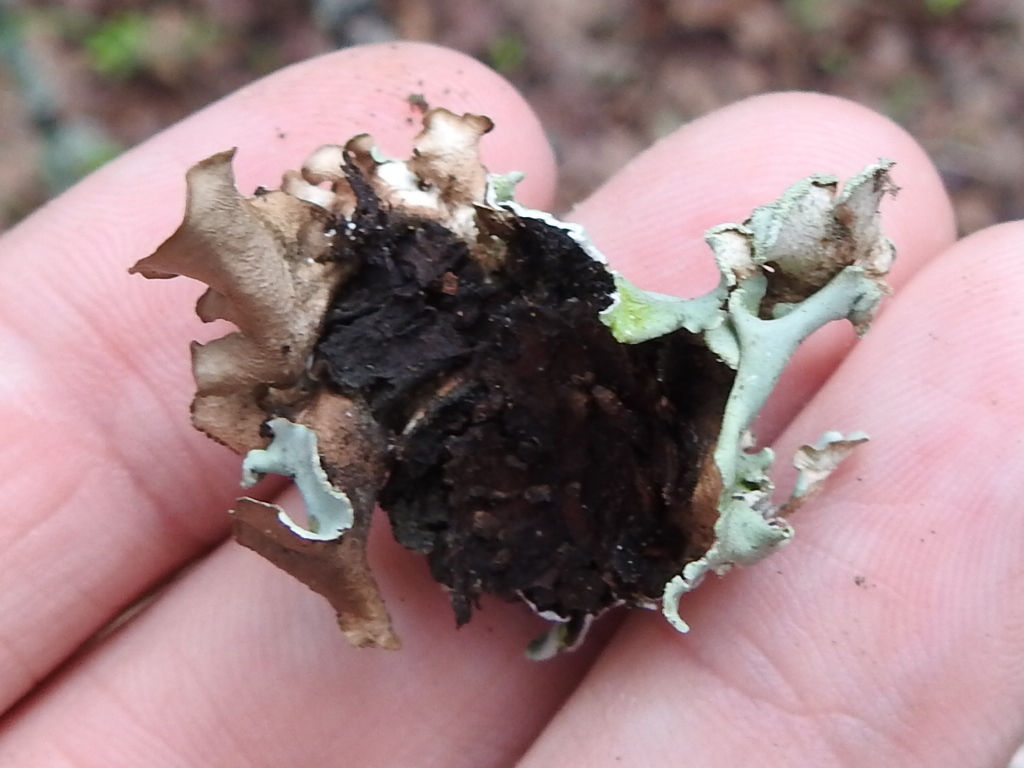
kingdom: Fungi
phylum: Ascomycota
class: Lecanoromycetes
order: Lecanorales
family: Parmeliaceae
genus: Parmotrema
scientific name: Parmotrema austrosinense
